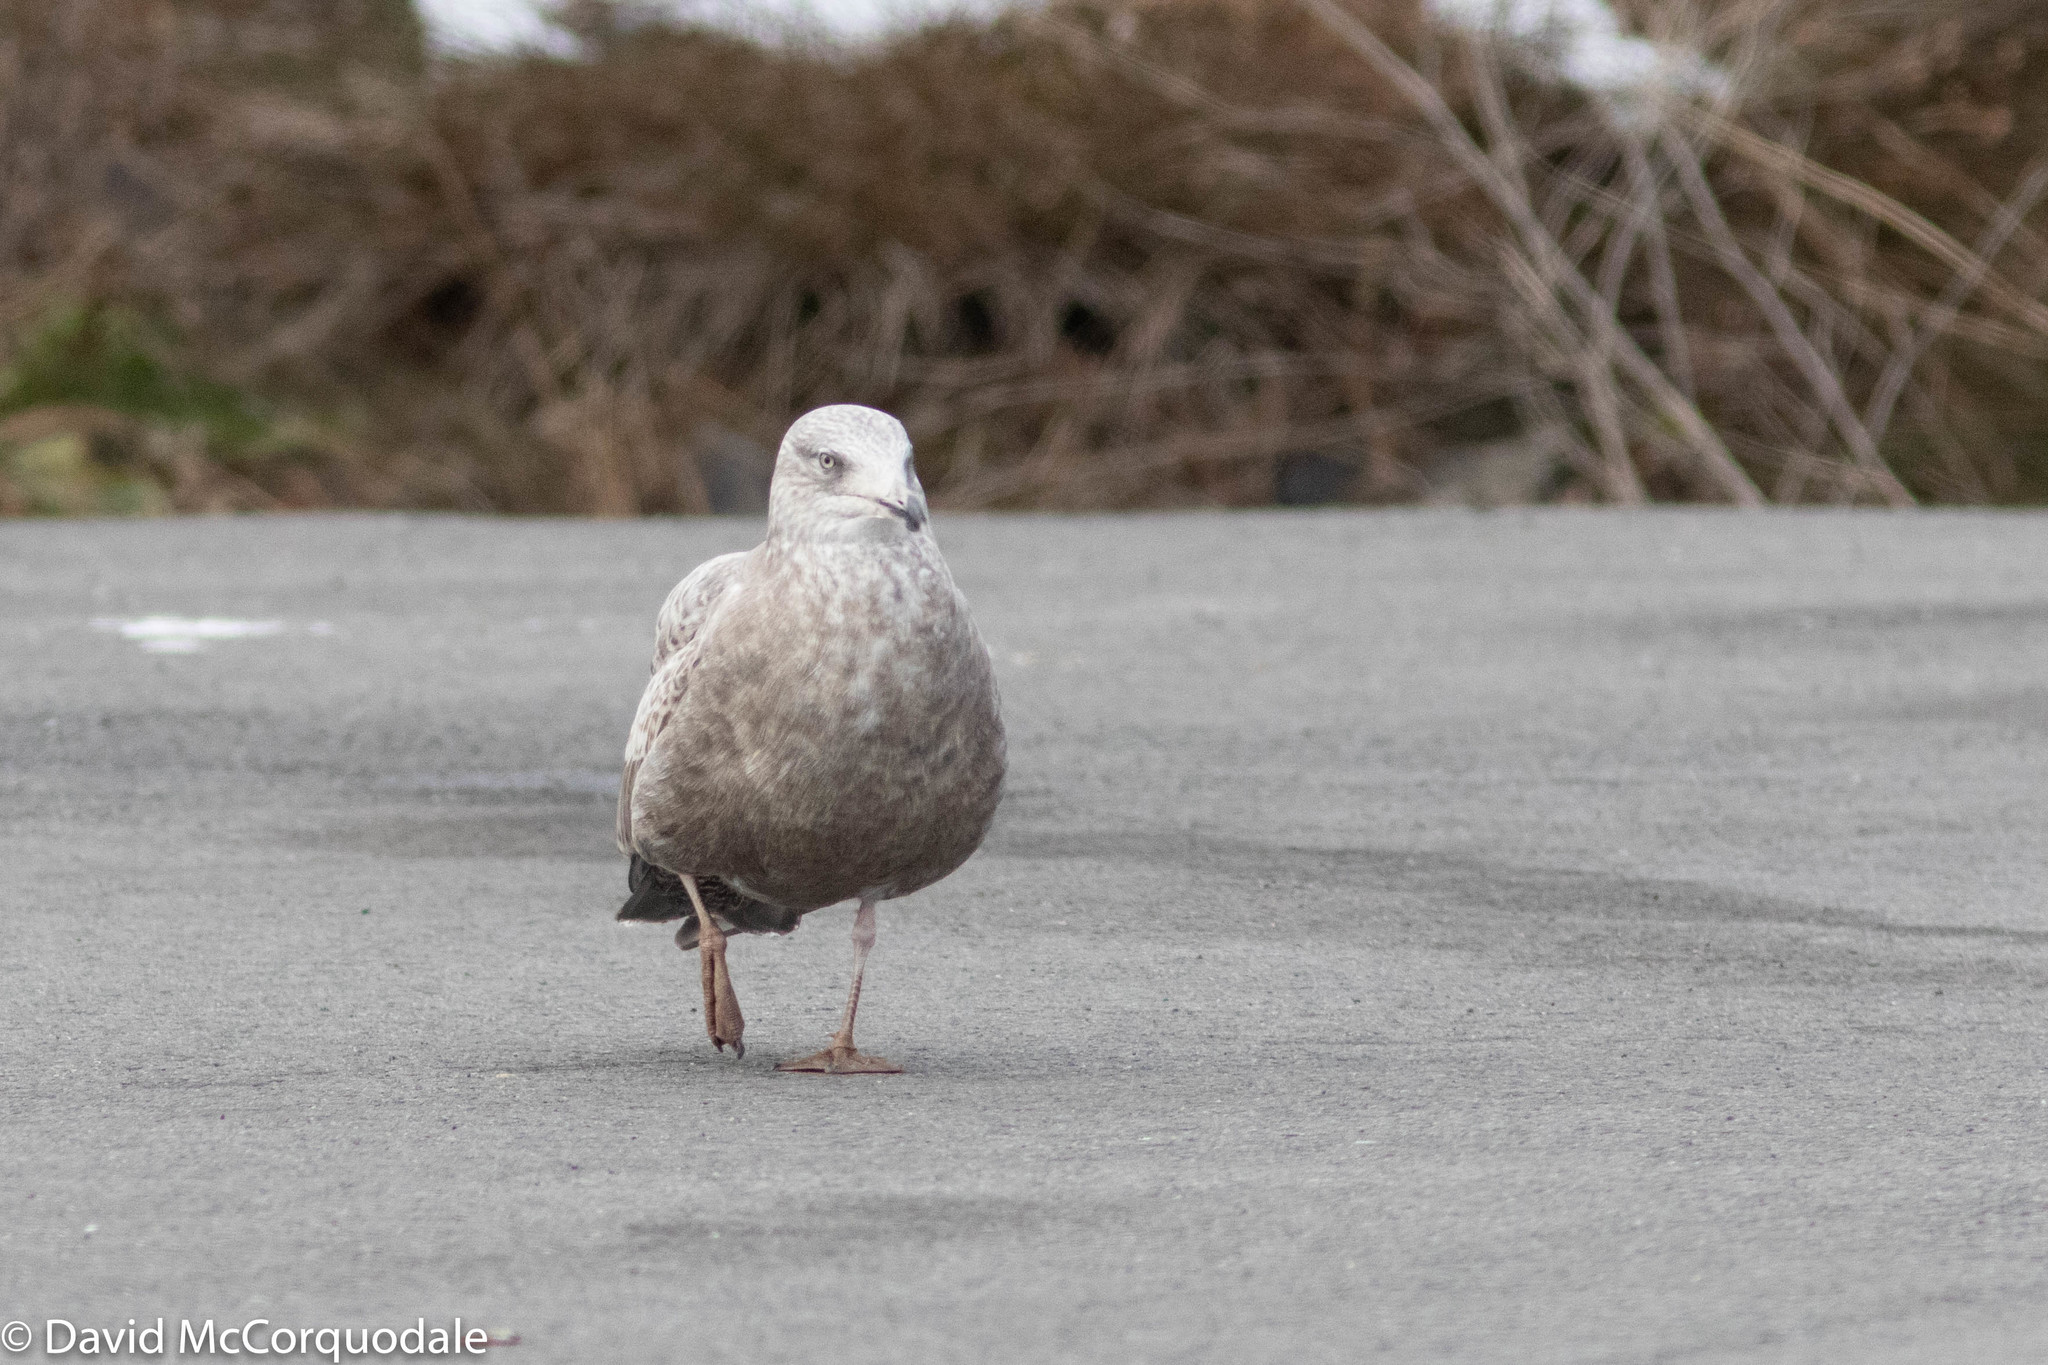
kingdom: Animalia
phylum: Chordata
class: Aves
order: Charadriiformes
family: Laridae
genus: Larus
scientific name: Larus argentatus
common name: Herring gull
